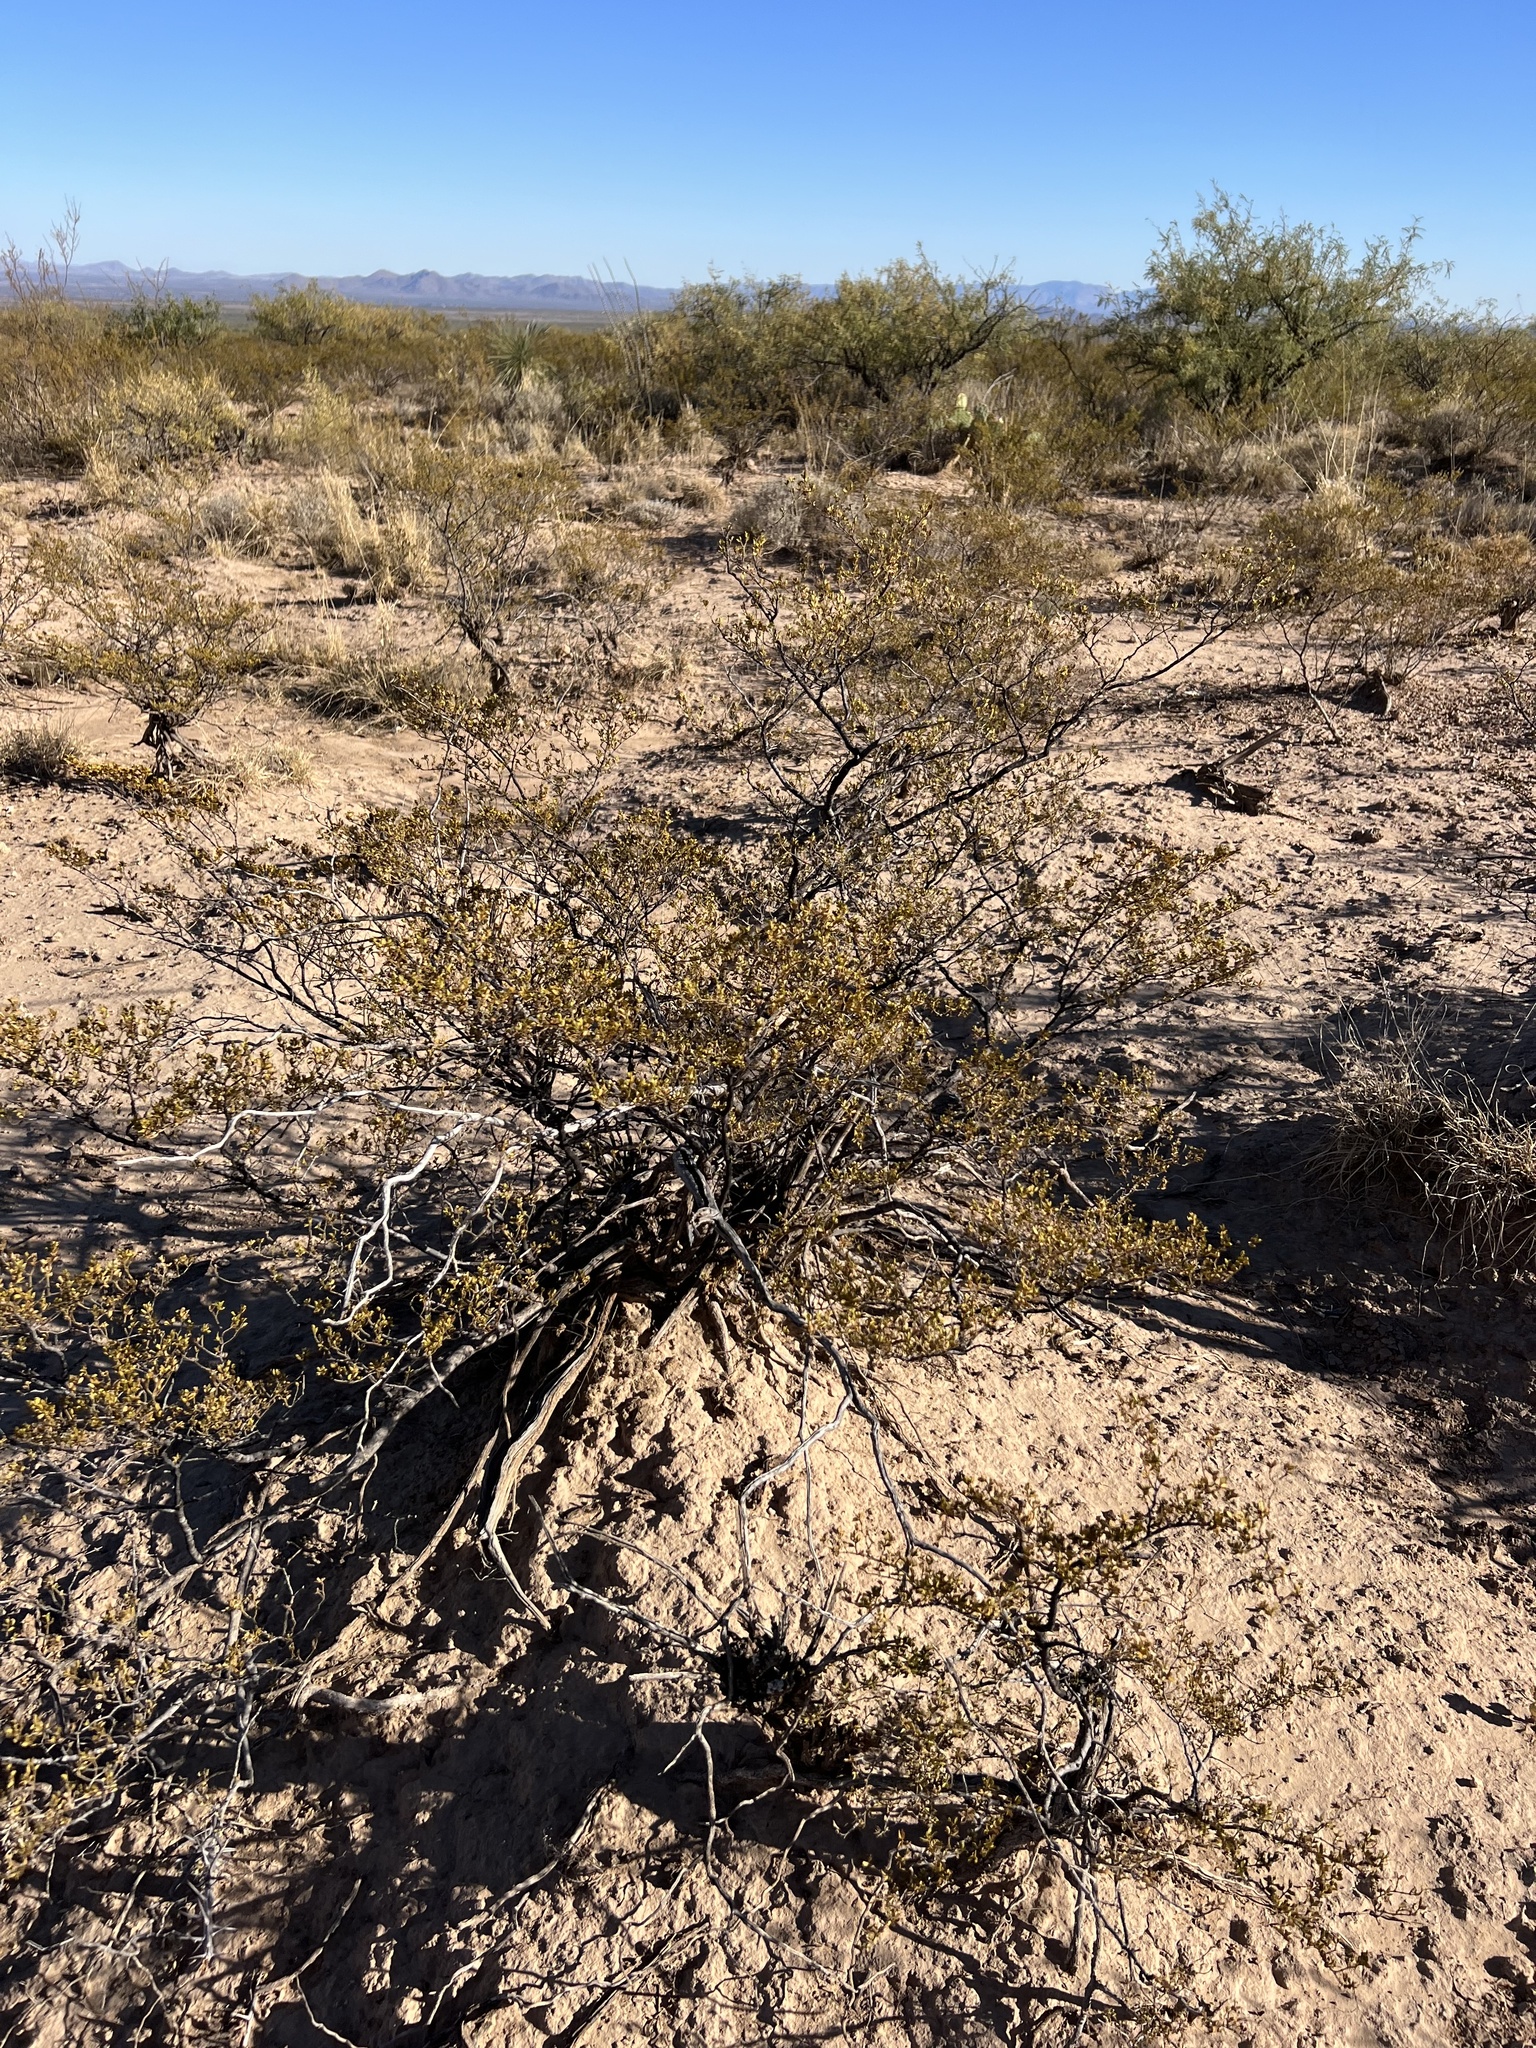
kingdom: Plantae
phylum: Tracheophyta
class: Magnoliopsida
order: Zygophyllales
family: Zygophyllaceae
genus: Larrea
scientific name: Larrea tridentata
